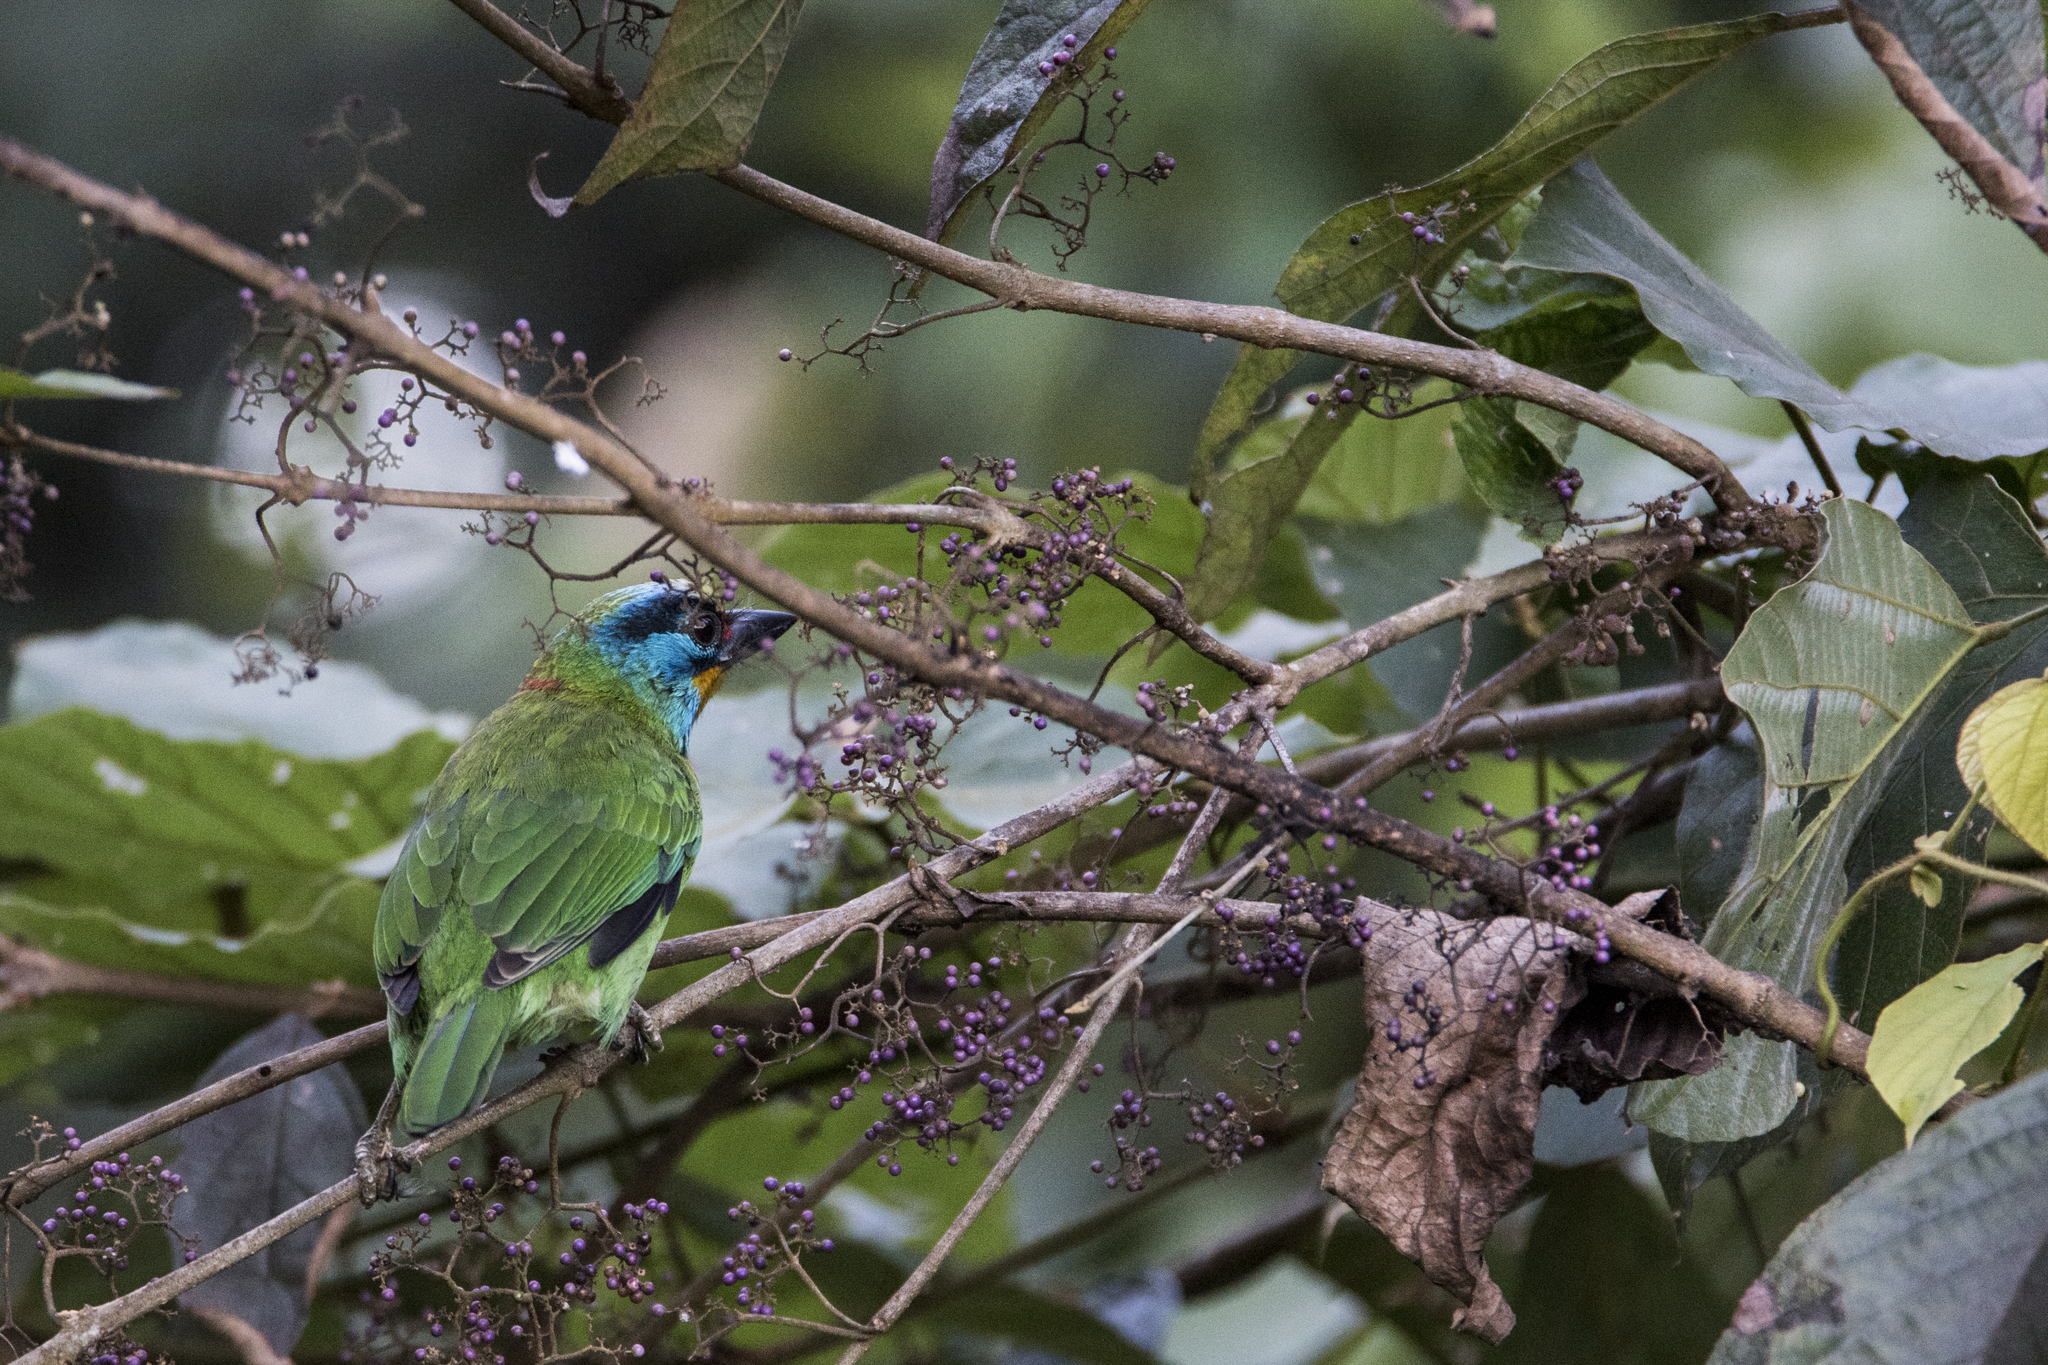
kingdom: Animalia
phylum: Chordata
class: Aves
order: Piciformes
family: Megalaimidae
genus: Psilopogon
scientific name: Psilopogon nuchalis
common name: Taiwan barbet
